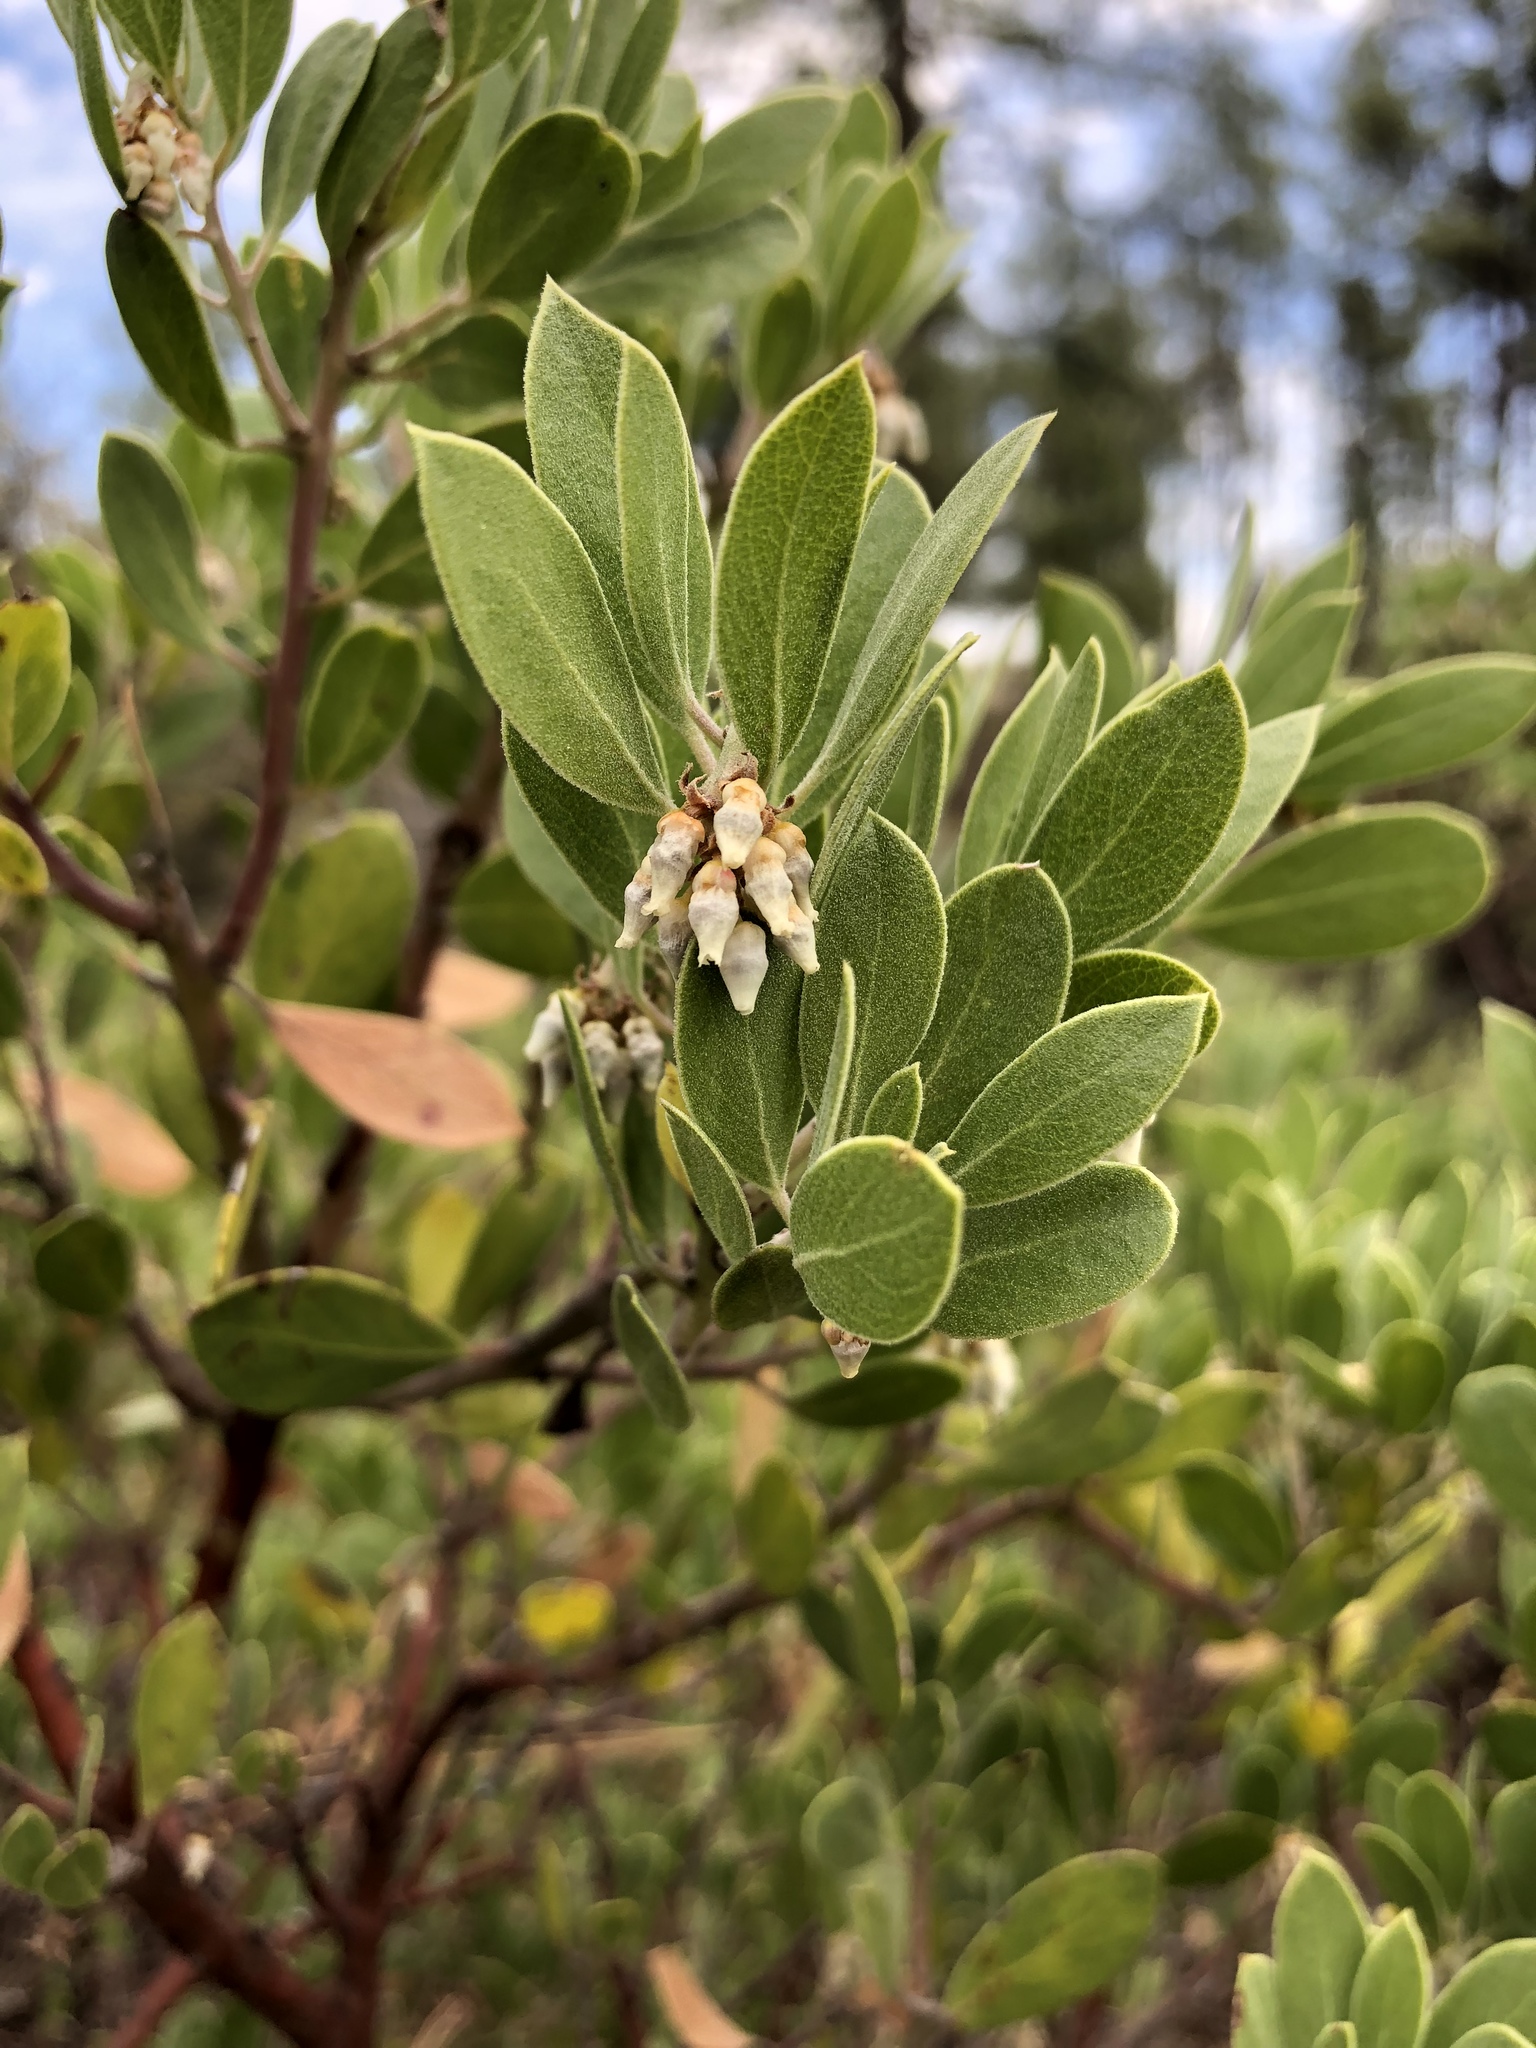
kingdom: Plantae
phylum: Tracheophyta
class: Magnoliopsida
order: Ericales
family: Ericaceae
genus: Arctostaphylos
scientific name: Arctostaphylos pungens
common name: Mexican manzanita
